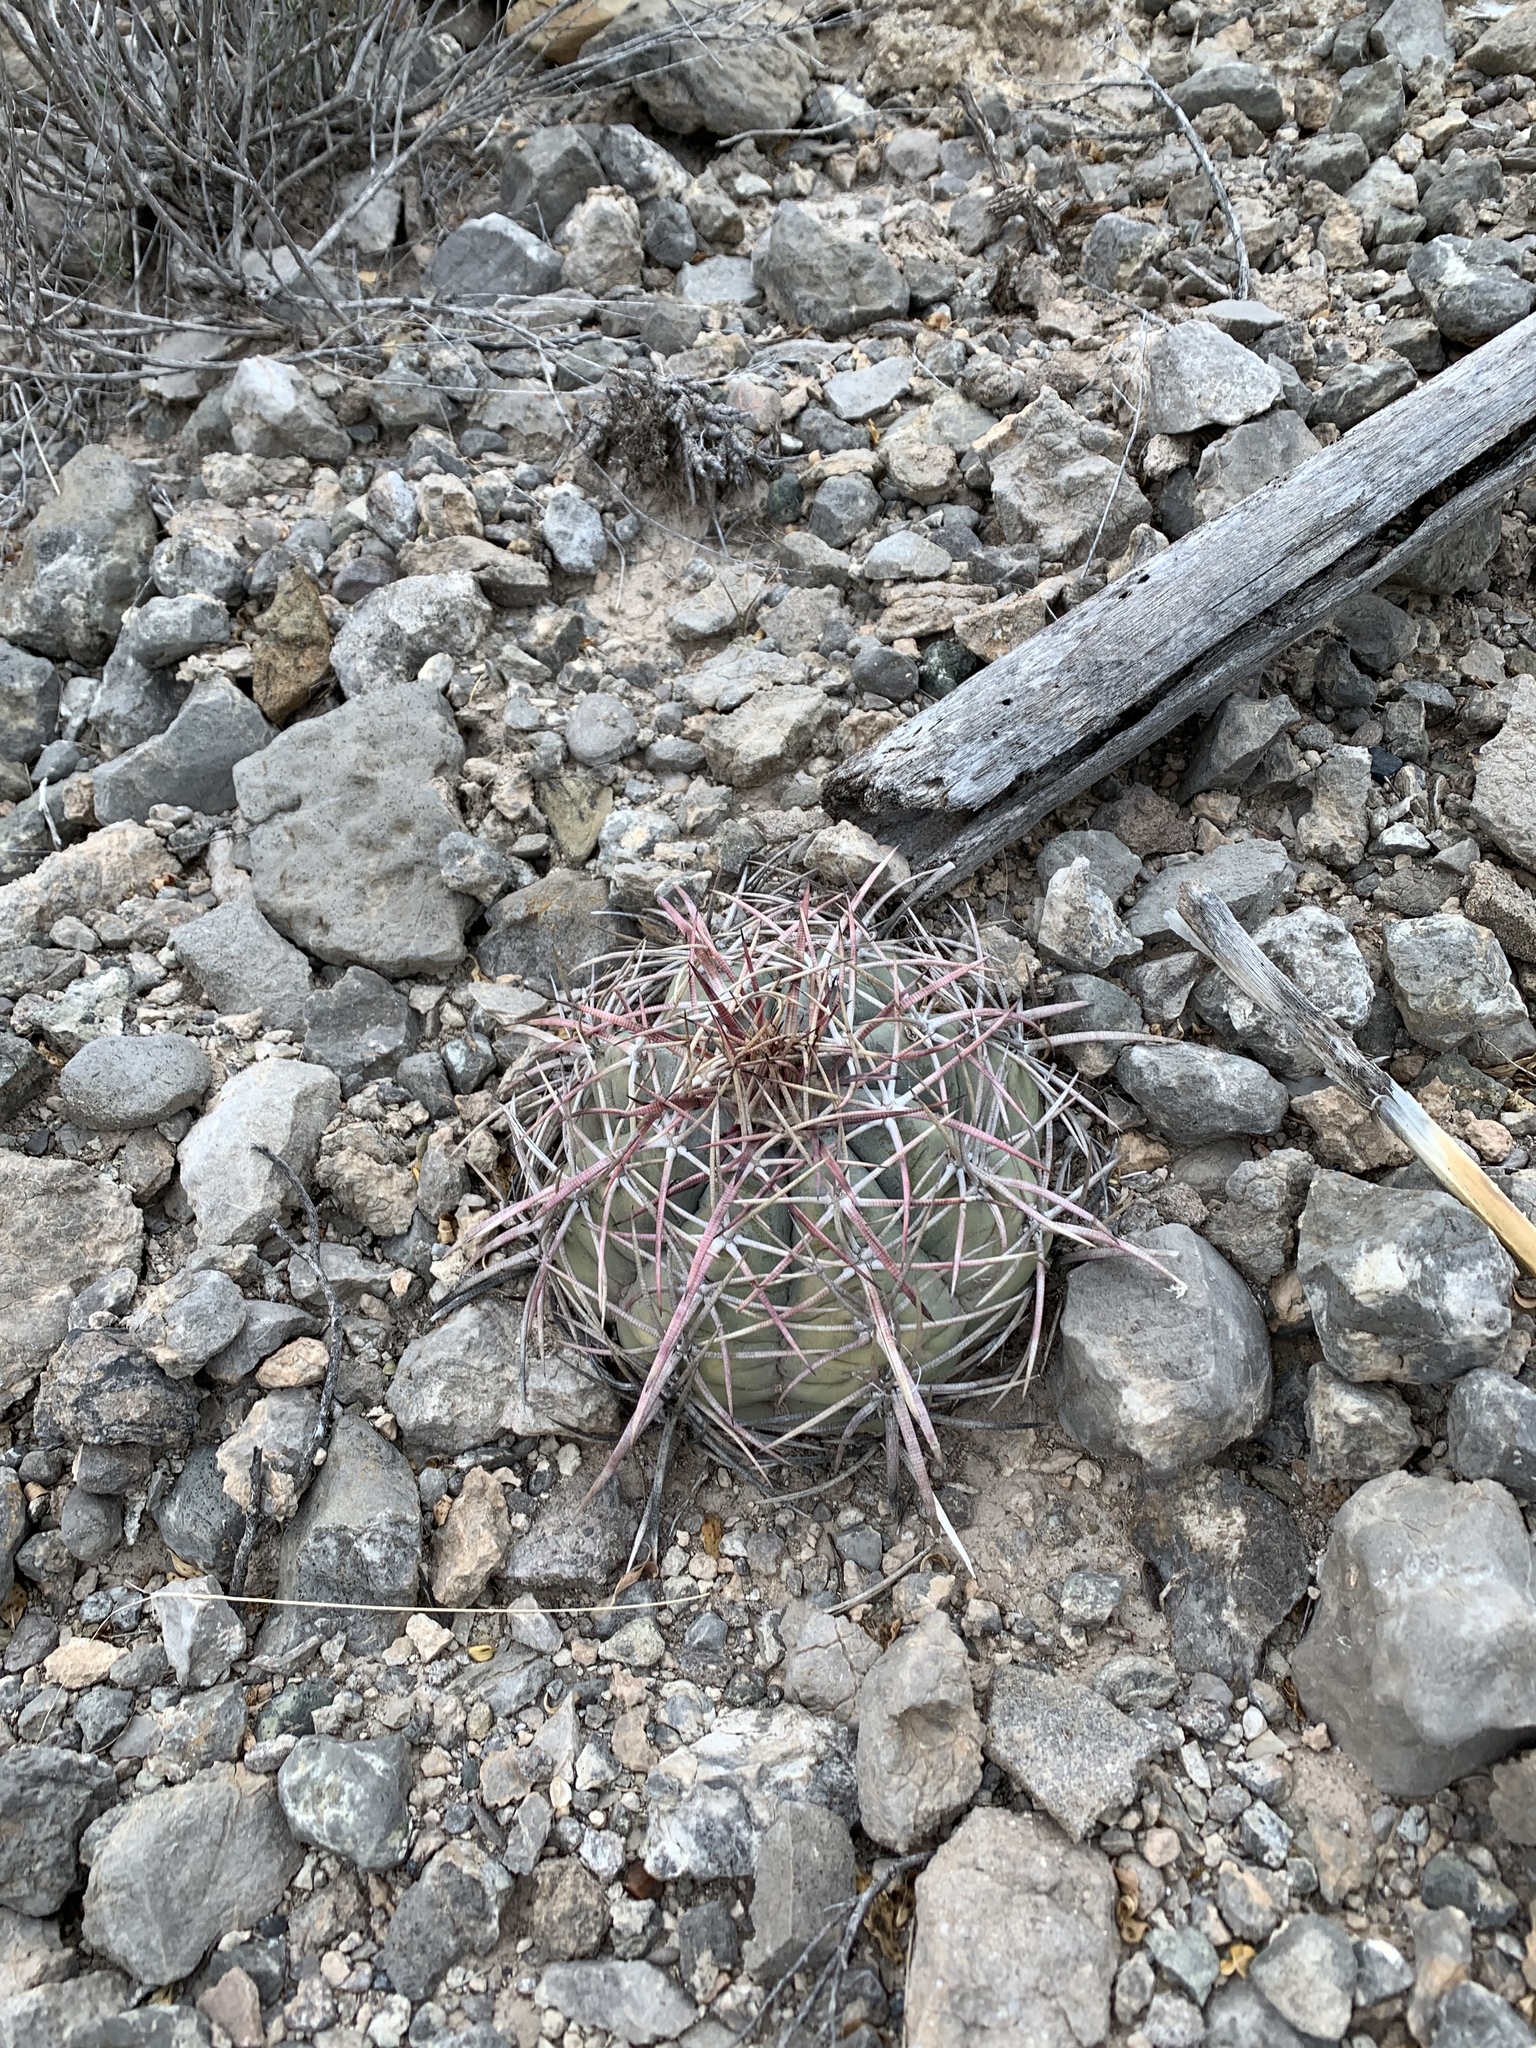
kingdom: Plantae
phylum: Tracheophyta
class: Magnoliopsida
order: Caryophyllales
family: Cactaceae
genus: Echinocactus
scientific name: Echinocactus horizonthalonius
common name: Devilshead
